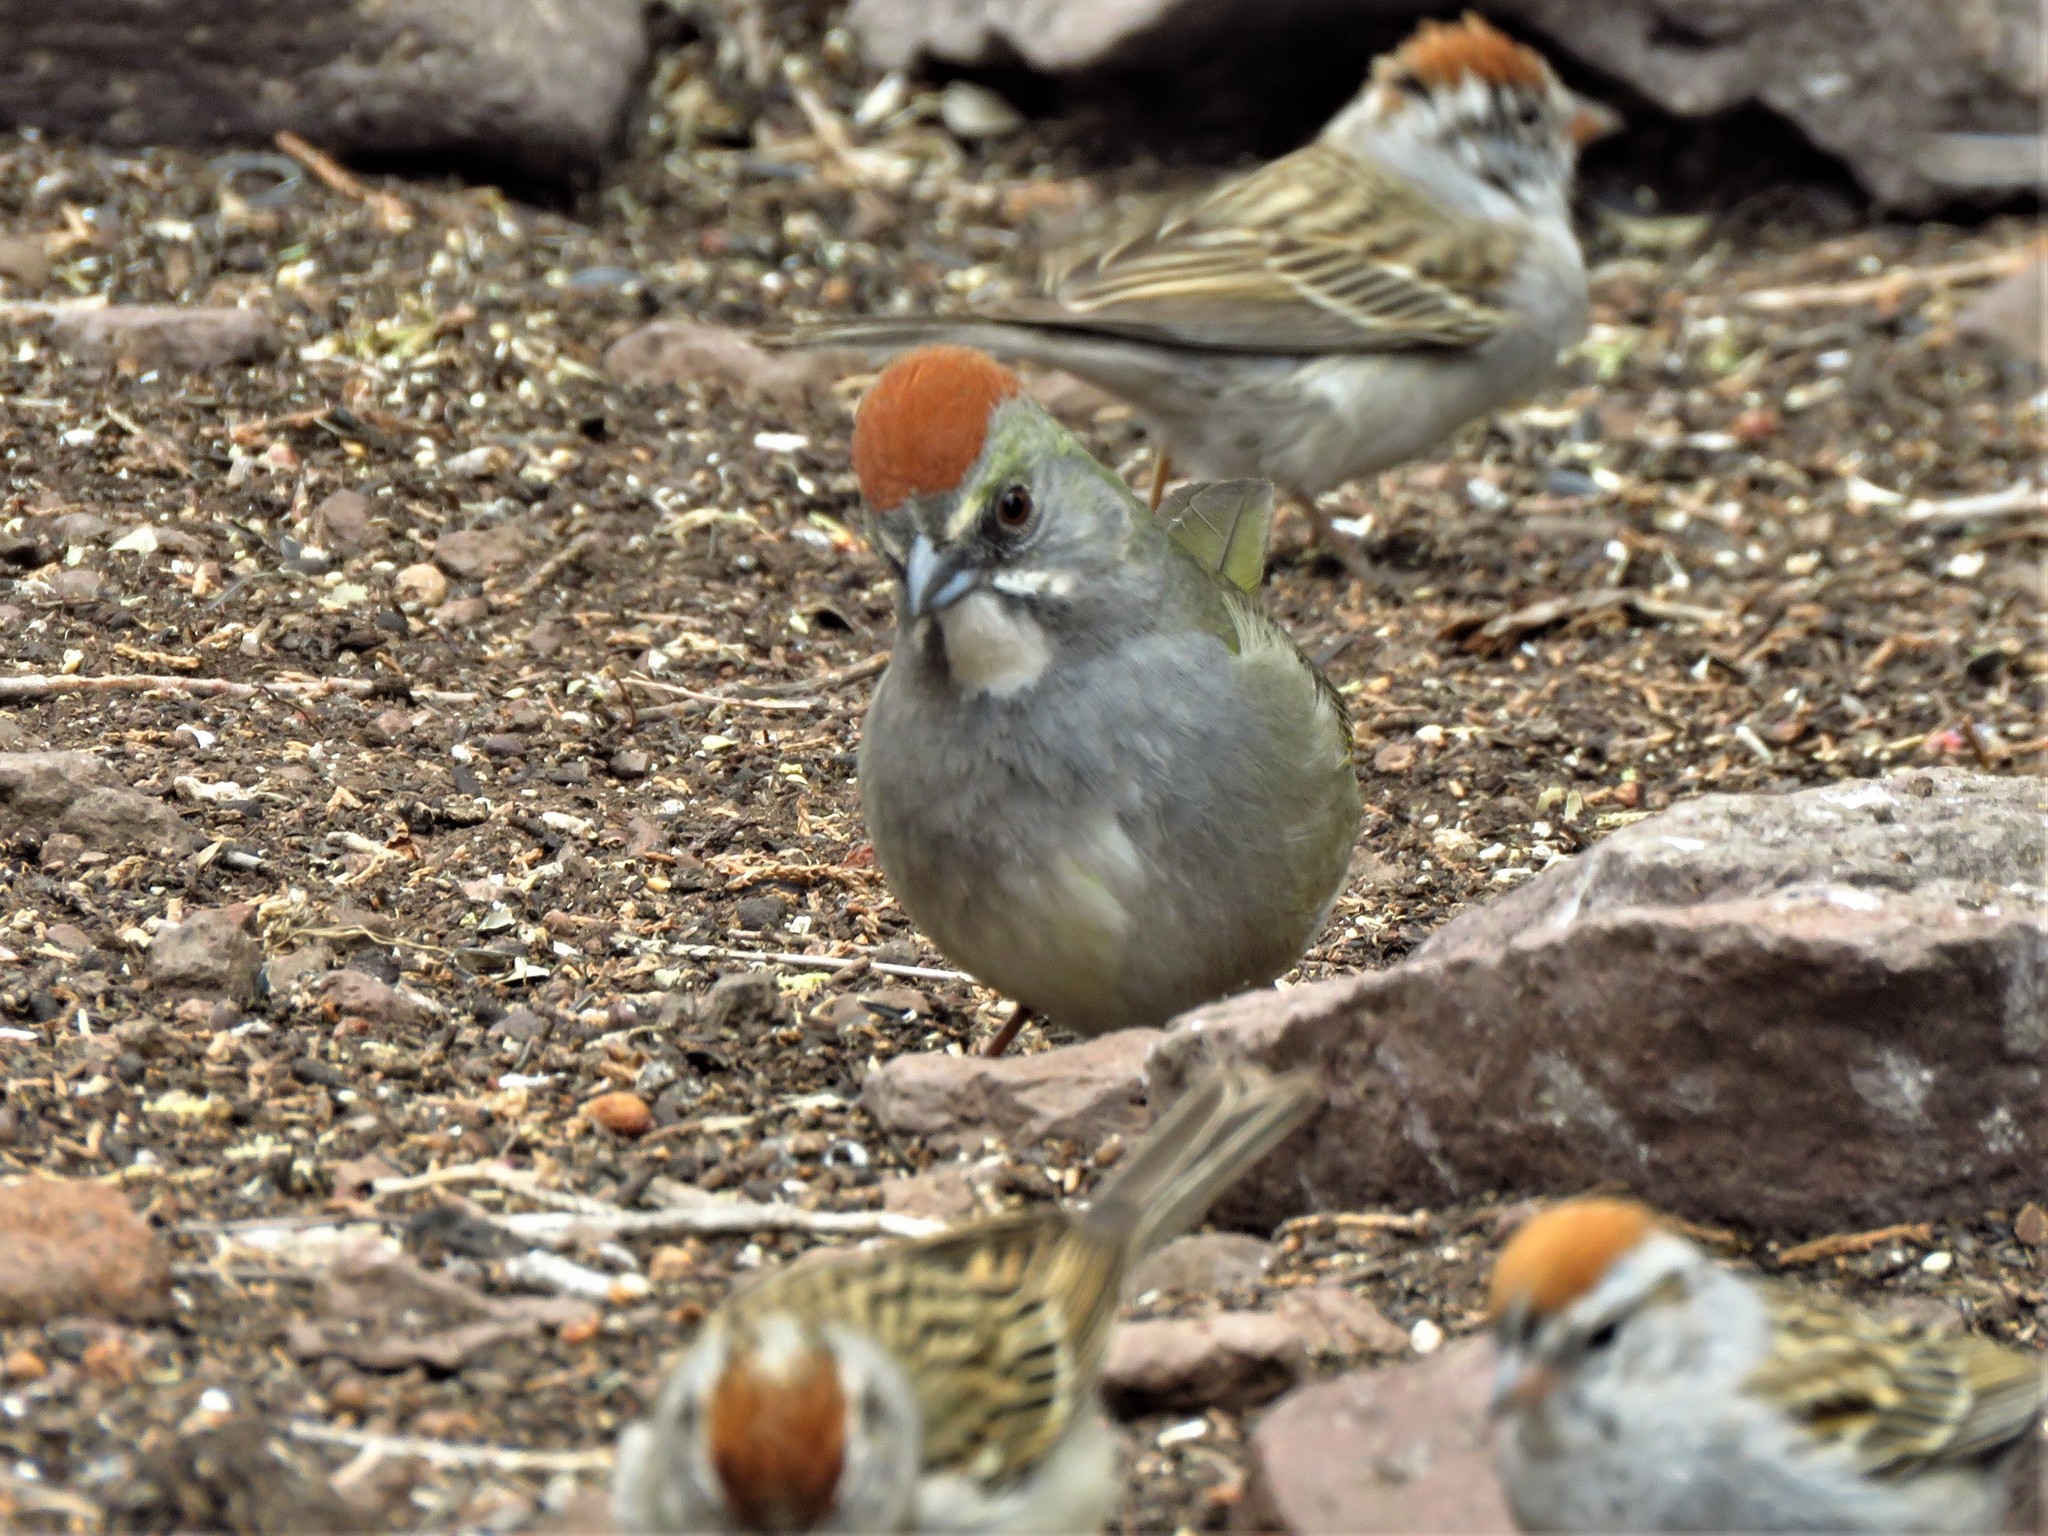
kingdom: Animalia
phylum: Chordata
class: Aves
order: Passeriformes
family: Passerellidae
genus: Pipilo
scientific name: Pipilo chlorurus
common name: Green-tailed towhee
